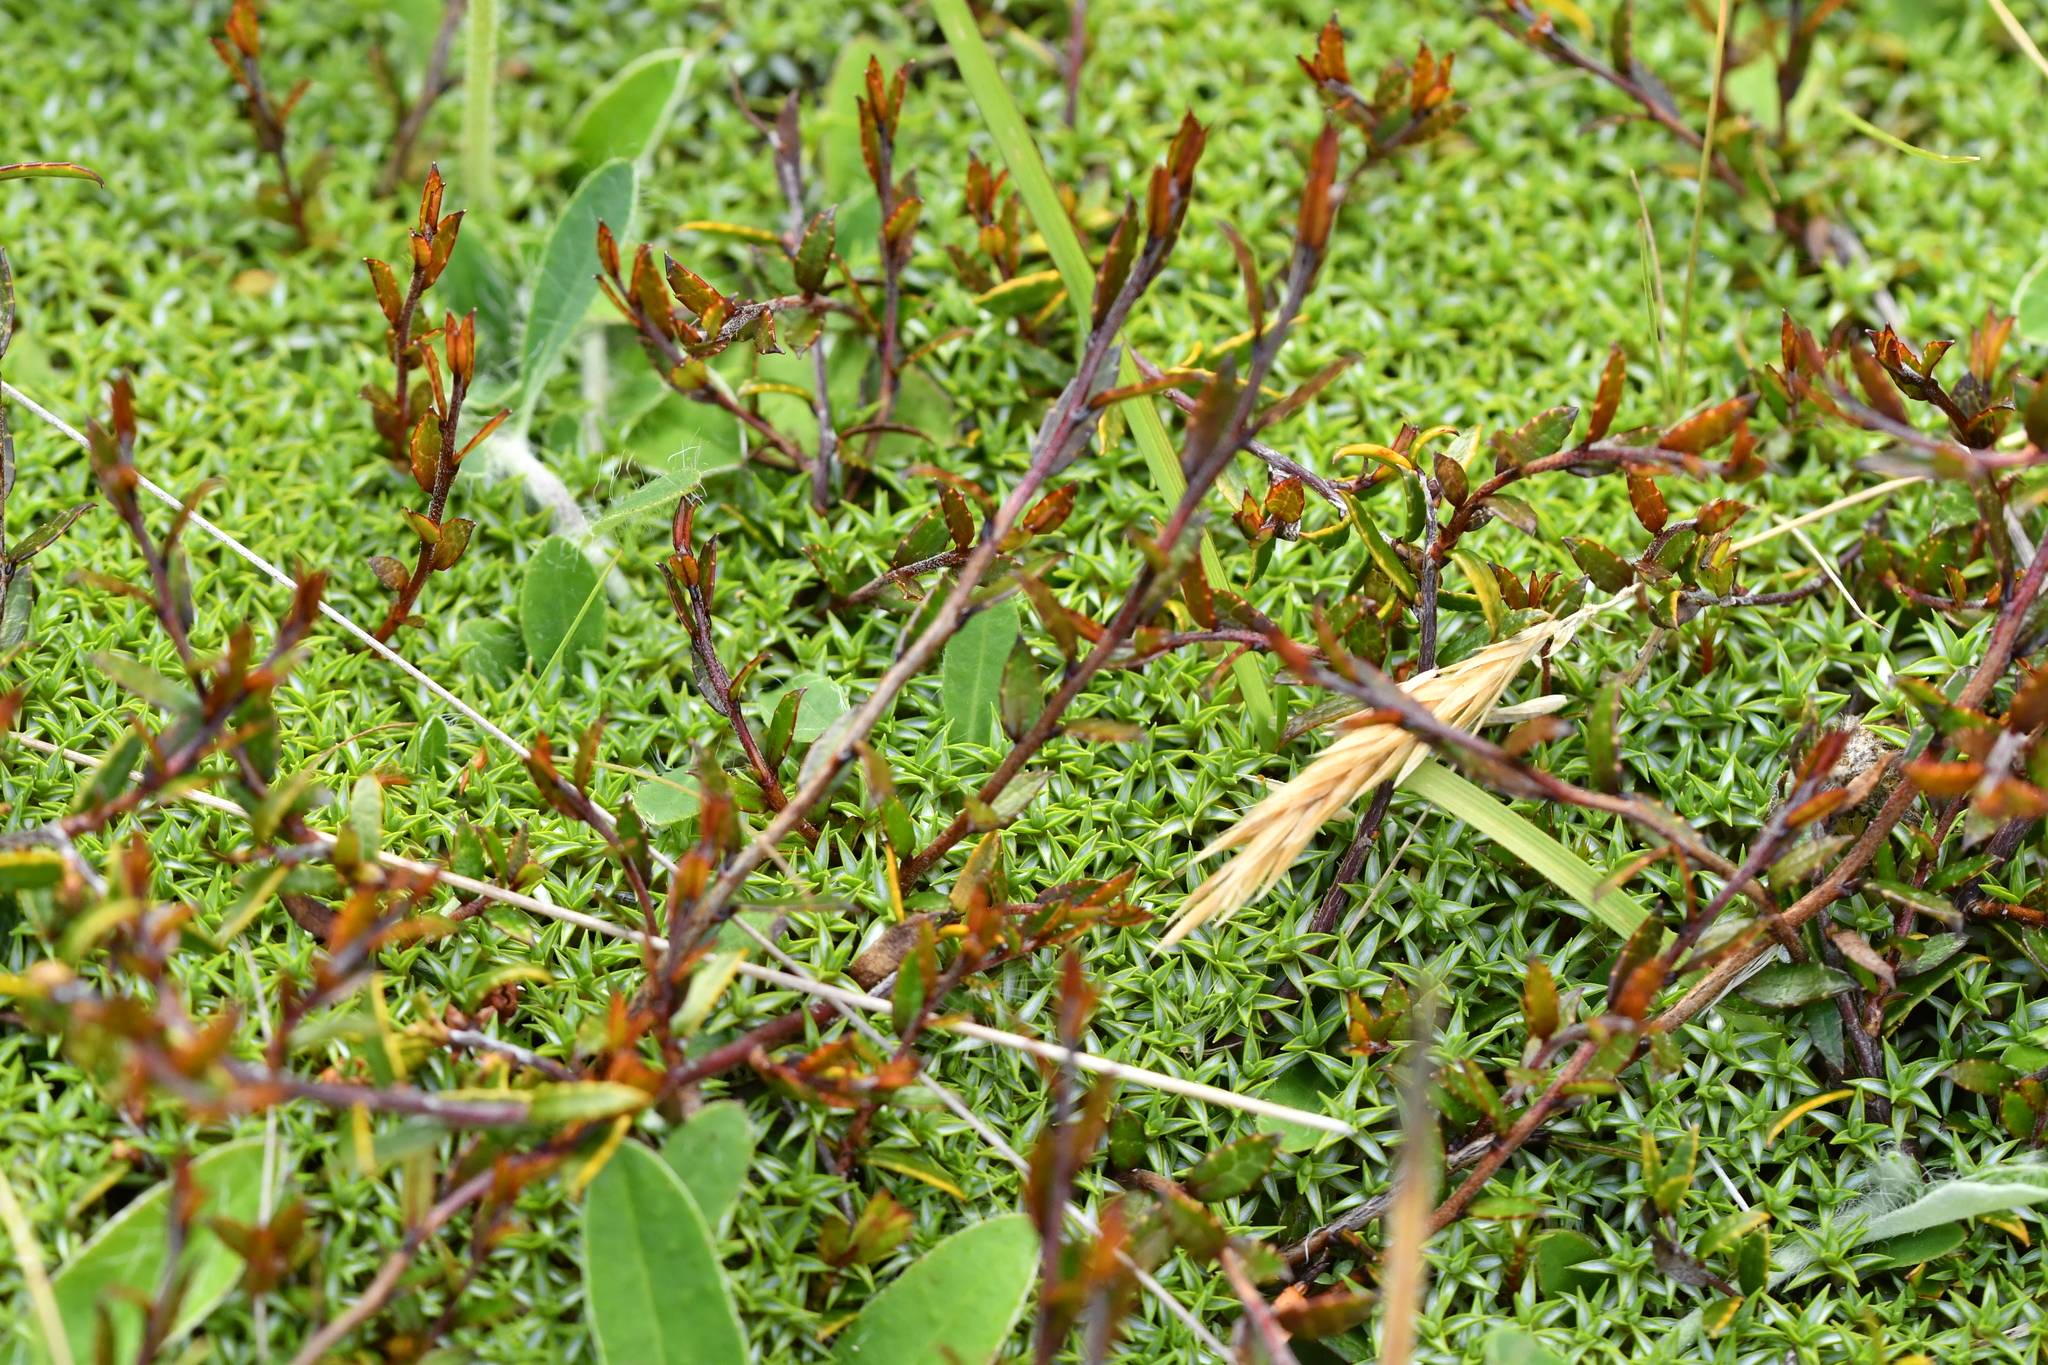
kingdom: Plantae
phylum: Tracheophyta
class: Magnoliopsida
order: Ericales
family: Ericaceae
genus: Gaultheria
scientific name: Gaultheria macrostigma
